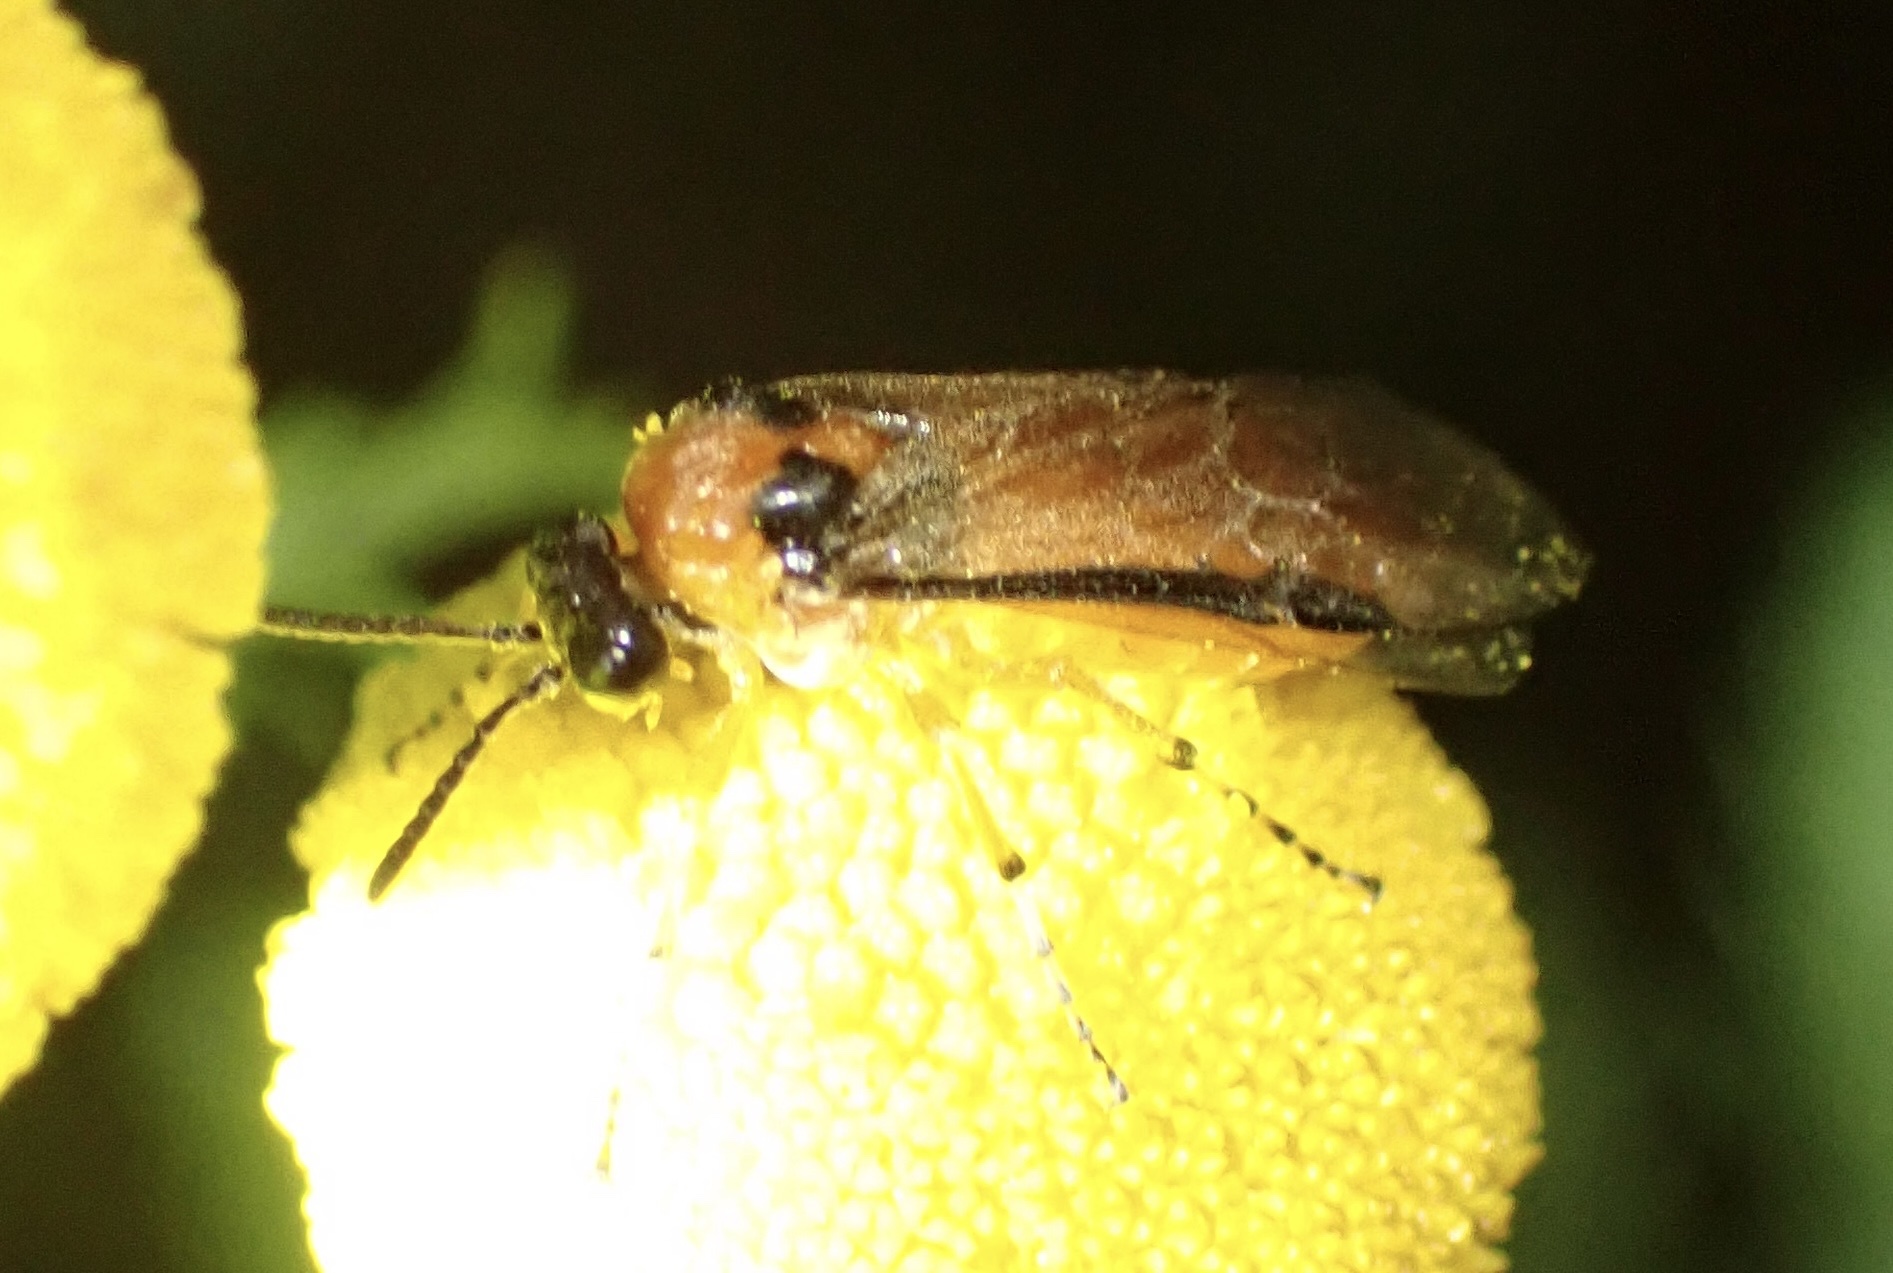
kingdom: Animalia
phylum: Arthropoda
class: Insecta
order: Hymenoptera
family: Tenthredinidae
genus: Athalia
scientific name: Athalia rosae
